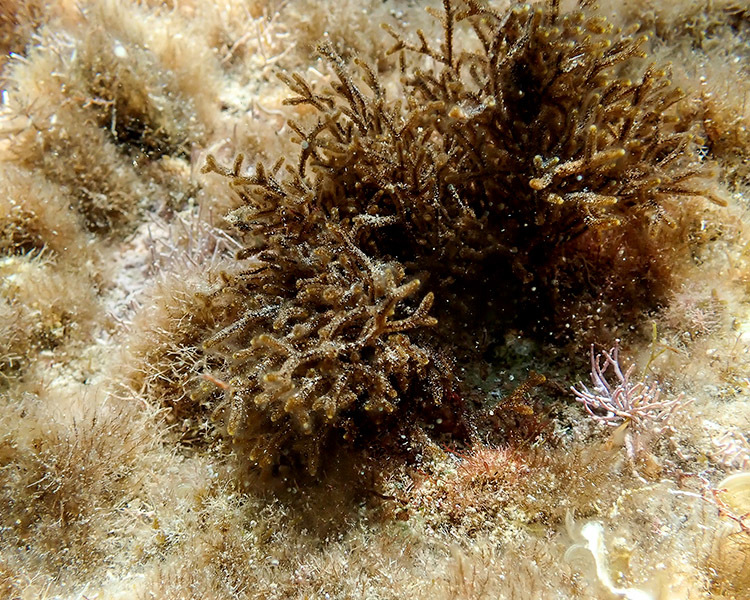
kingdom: Chromista
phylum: Ochrophyta
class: Phaeophyceae
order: Sphacelariales
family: Cladostephaceae
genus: Cladostephus
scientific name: Cladostephus hirsutus
